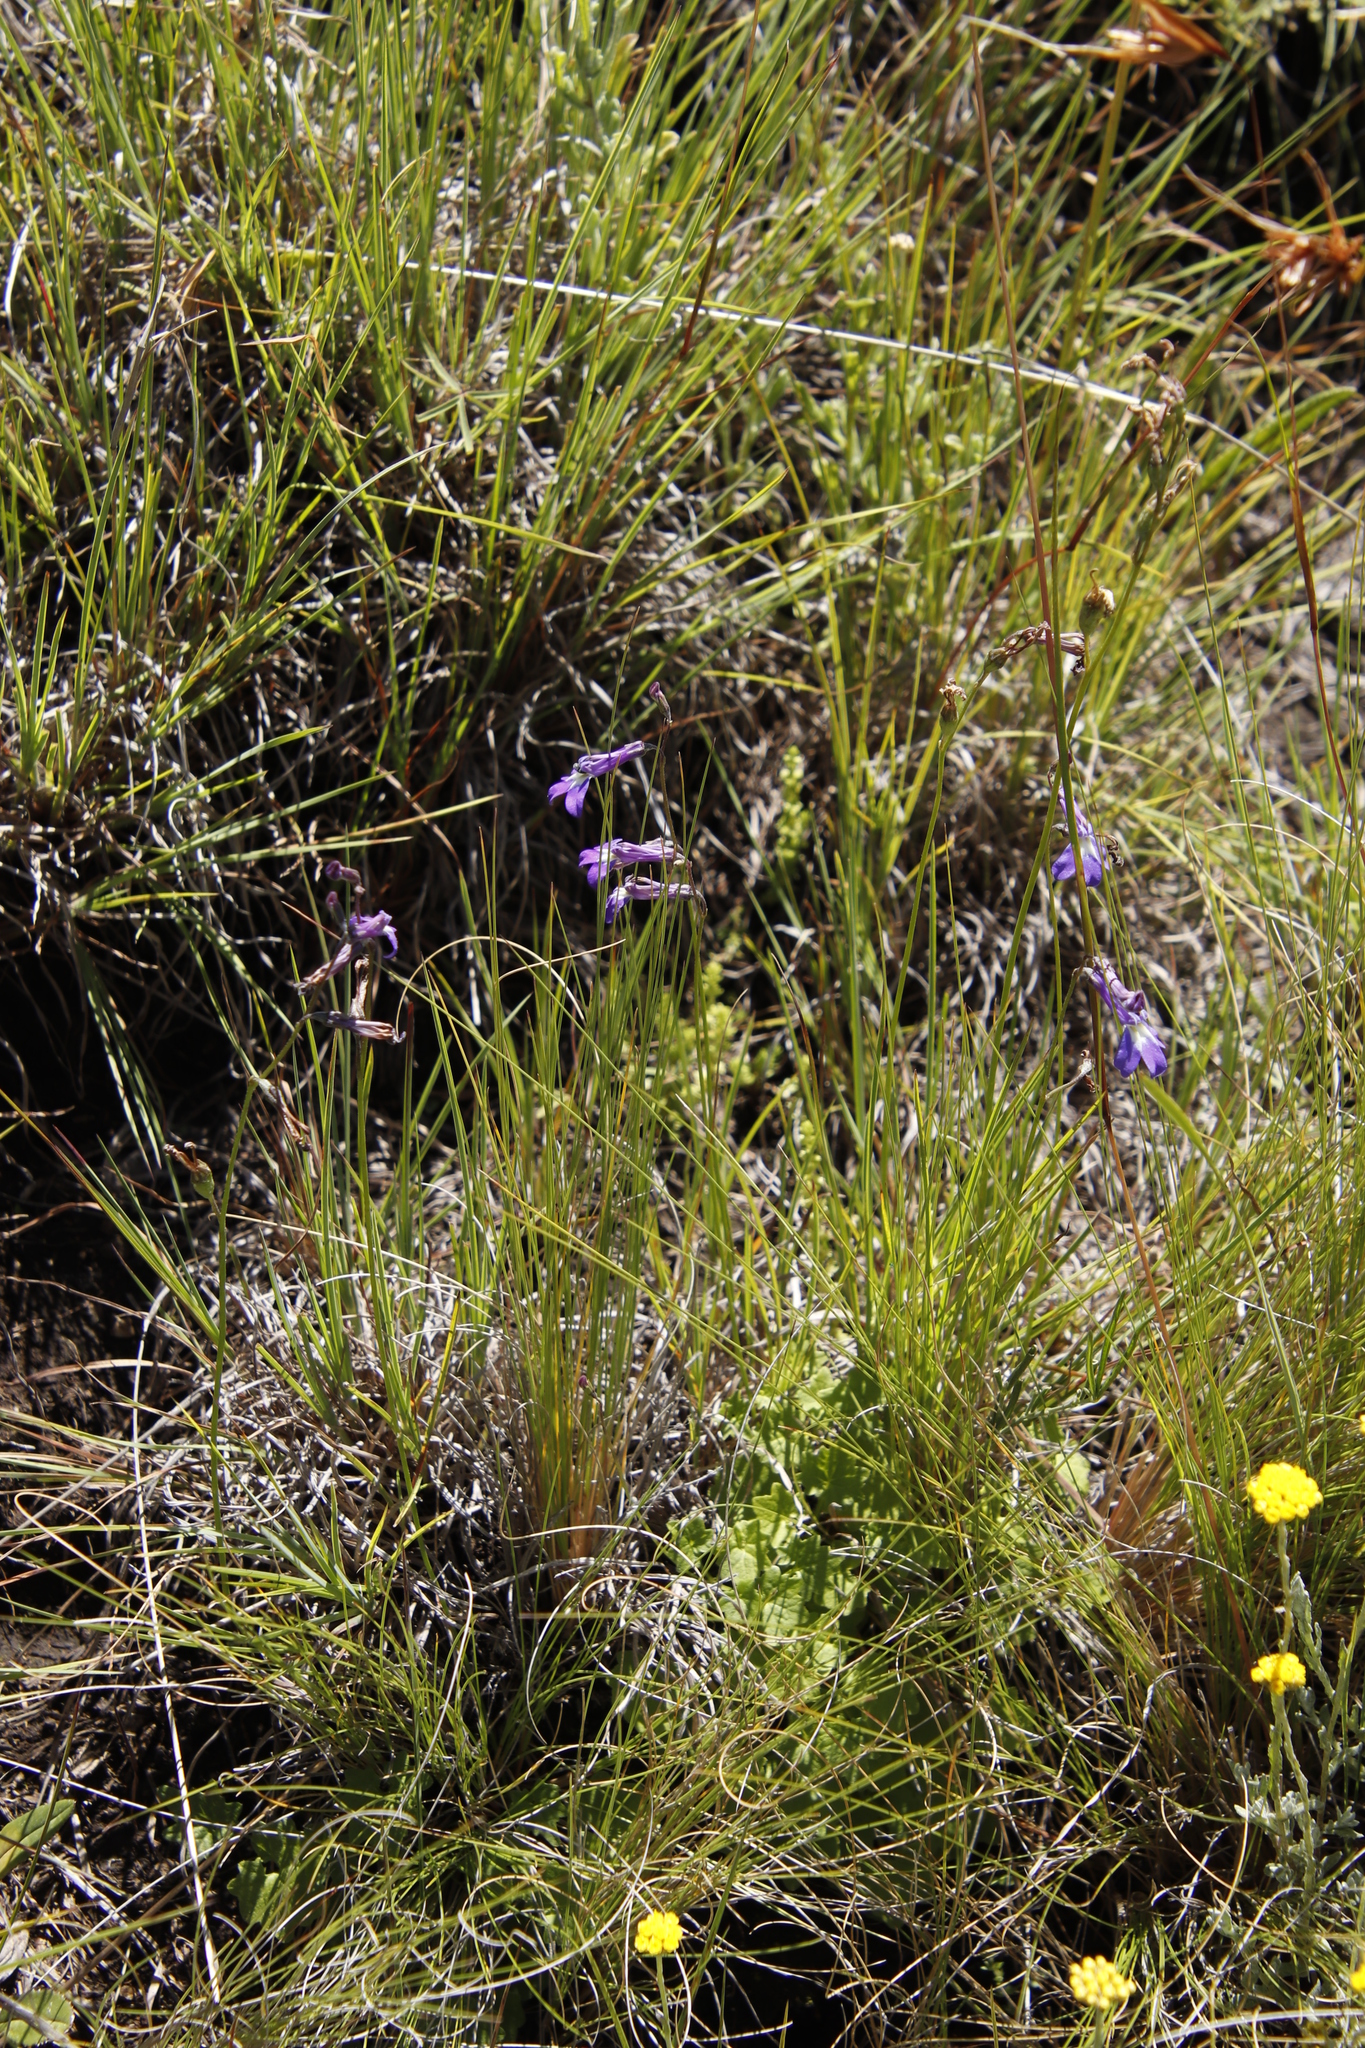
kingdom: Plantae
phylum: Tracheophyta
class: Magnoliopsida
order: Asterales
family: Campanulaceae
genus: Lobelia
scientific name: Lobelia preslii
